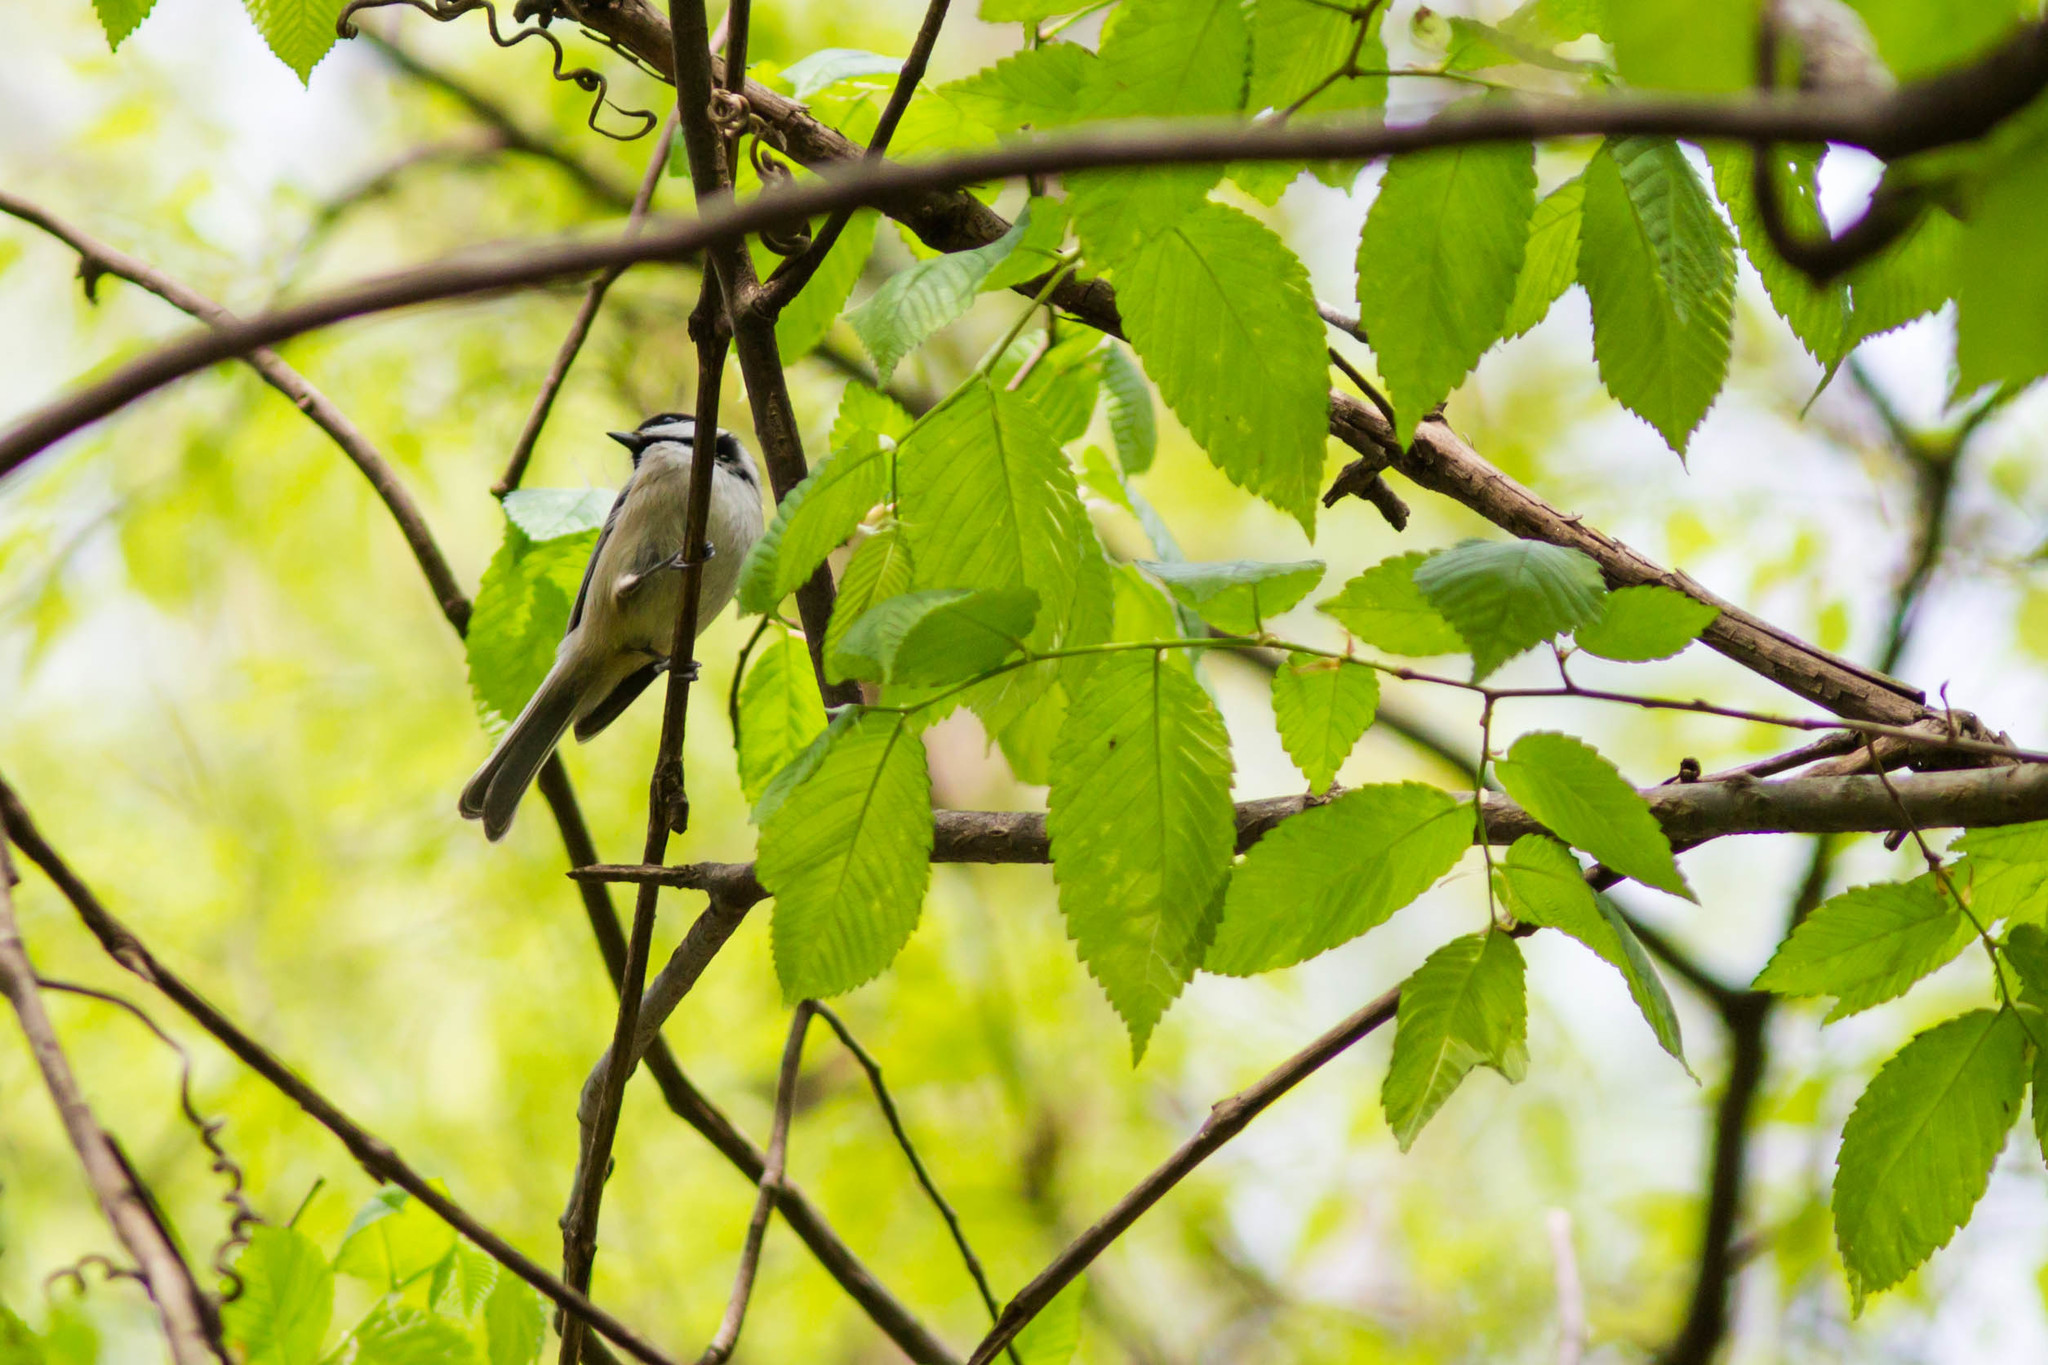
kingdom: Animalia
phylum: Chordata
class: Aves
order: Passeriformes
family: Paridae
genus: Poecile
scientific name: Poecile carolinensis
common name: Carolina chickadee
